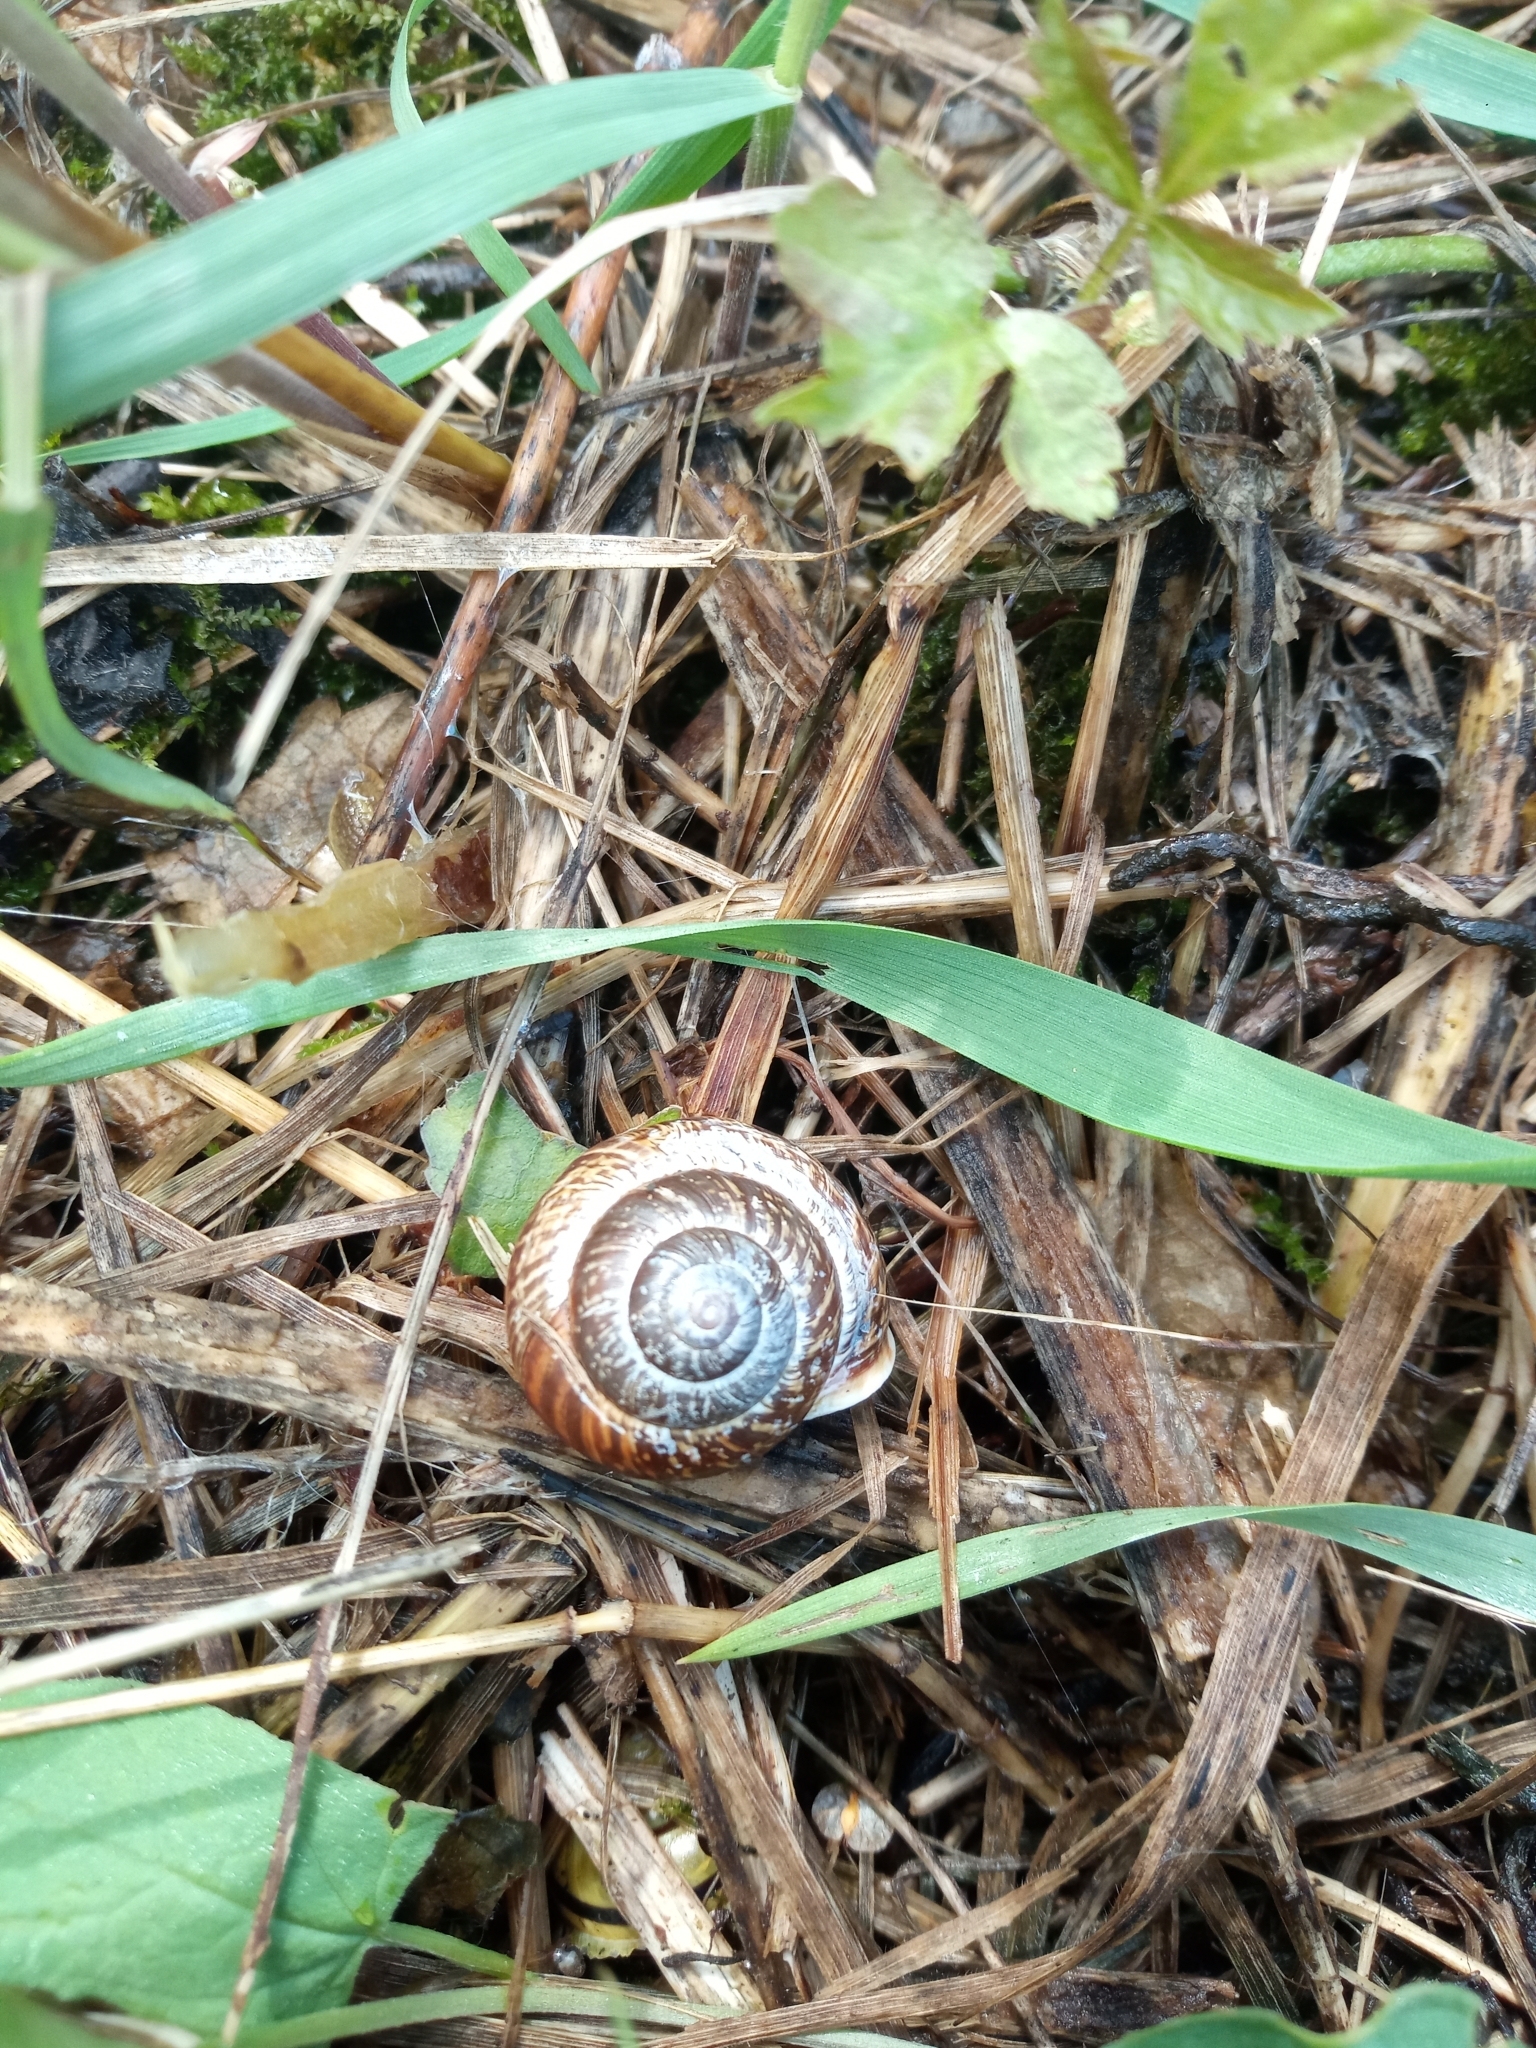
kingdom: Animalia
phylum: Mollusca
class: Gastropoda
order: Stylommatophora
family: Helicidae
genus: Arianta
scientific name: Arianta arbustorum
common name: Copse snail
